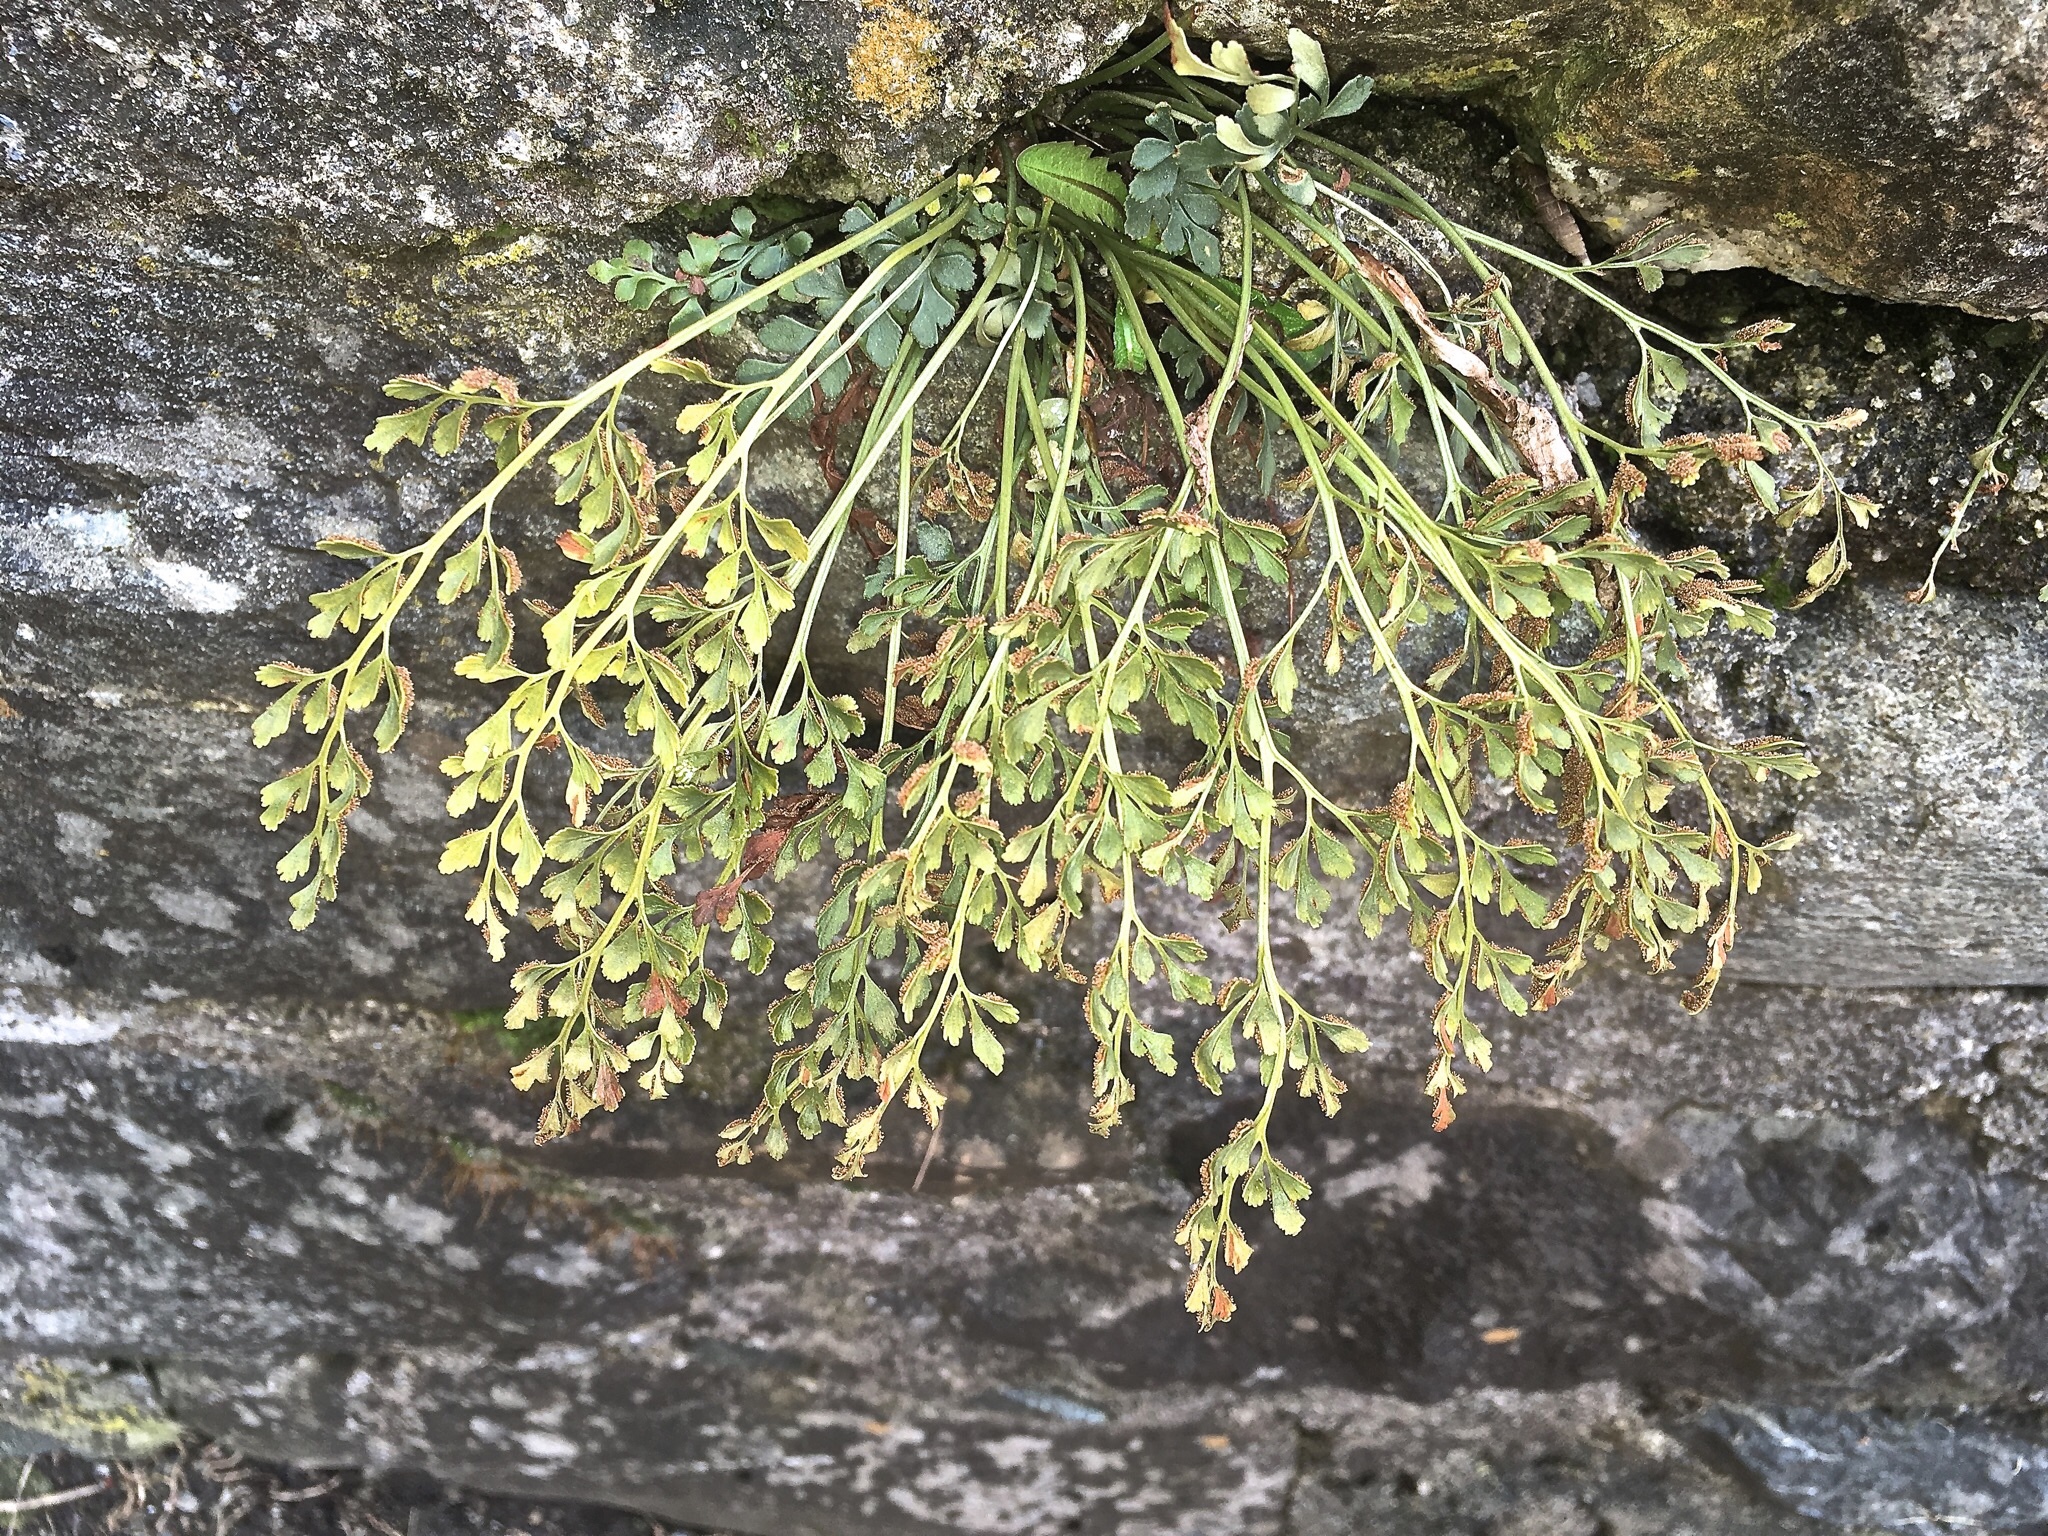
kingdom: Plantae
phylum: Tracheophyta
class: Polypodiopsida
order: Polypodiales
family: Aspleniaceae
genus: Asplenium
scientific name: Asplenium ruta-muraria
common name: Wall-rue
